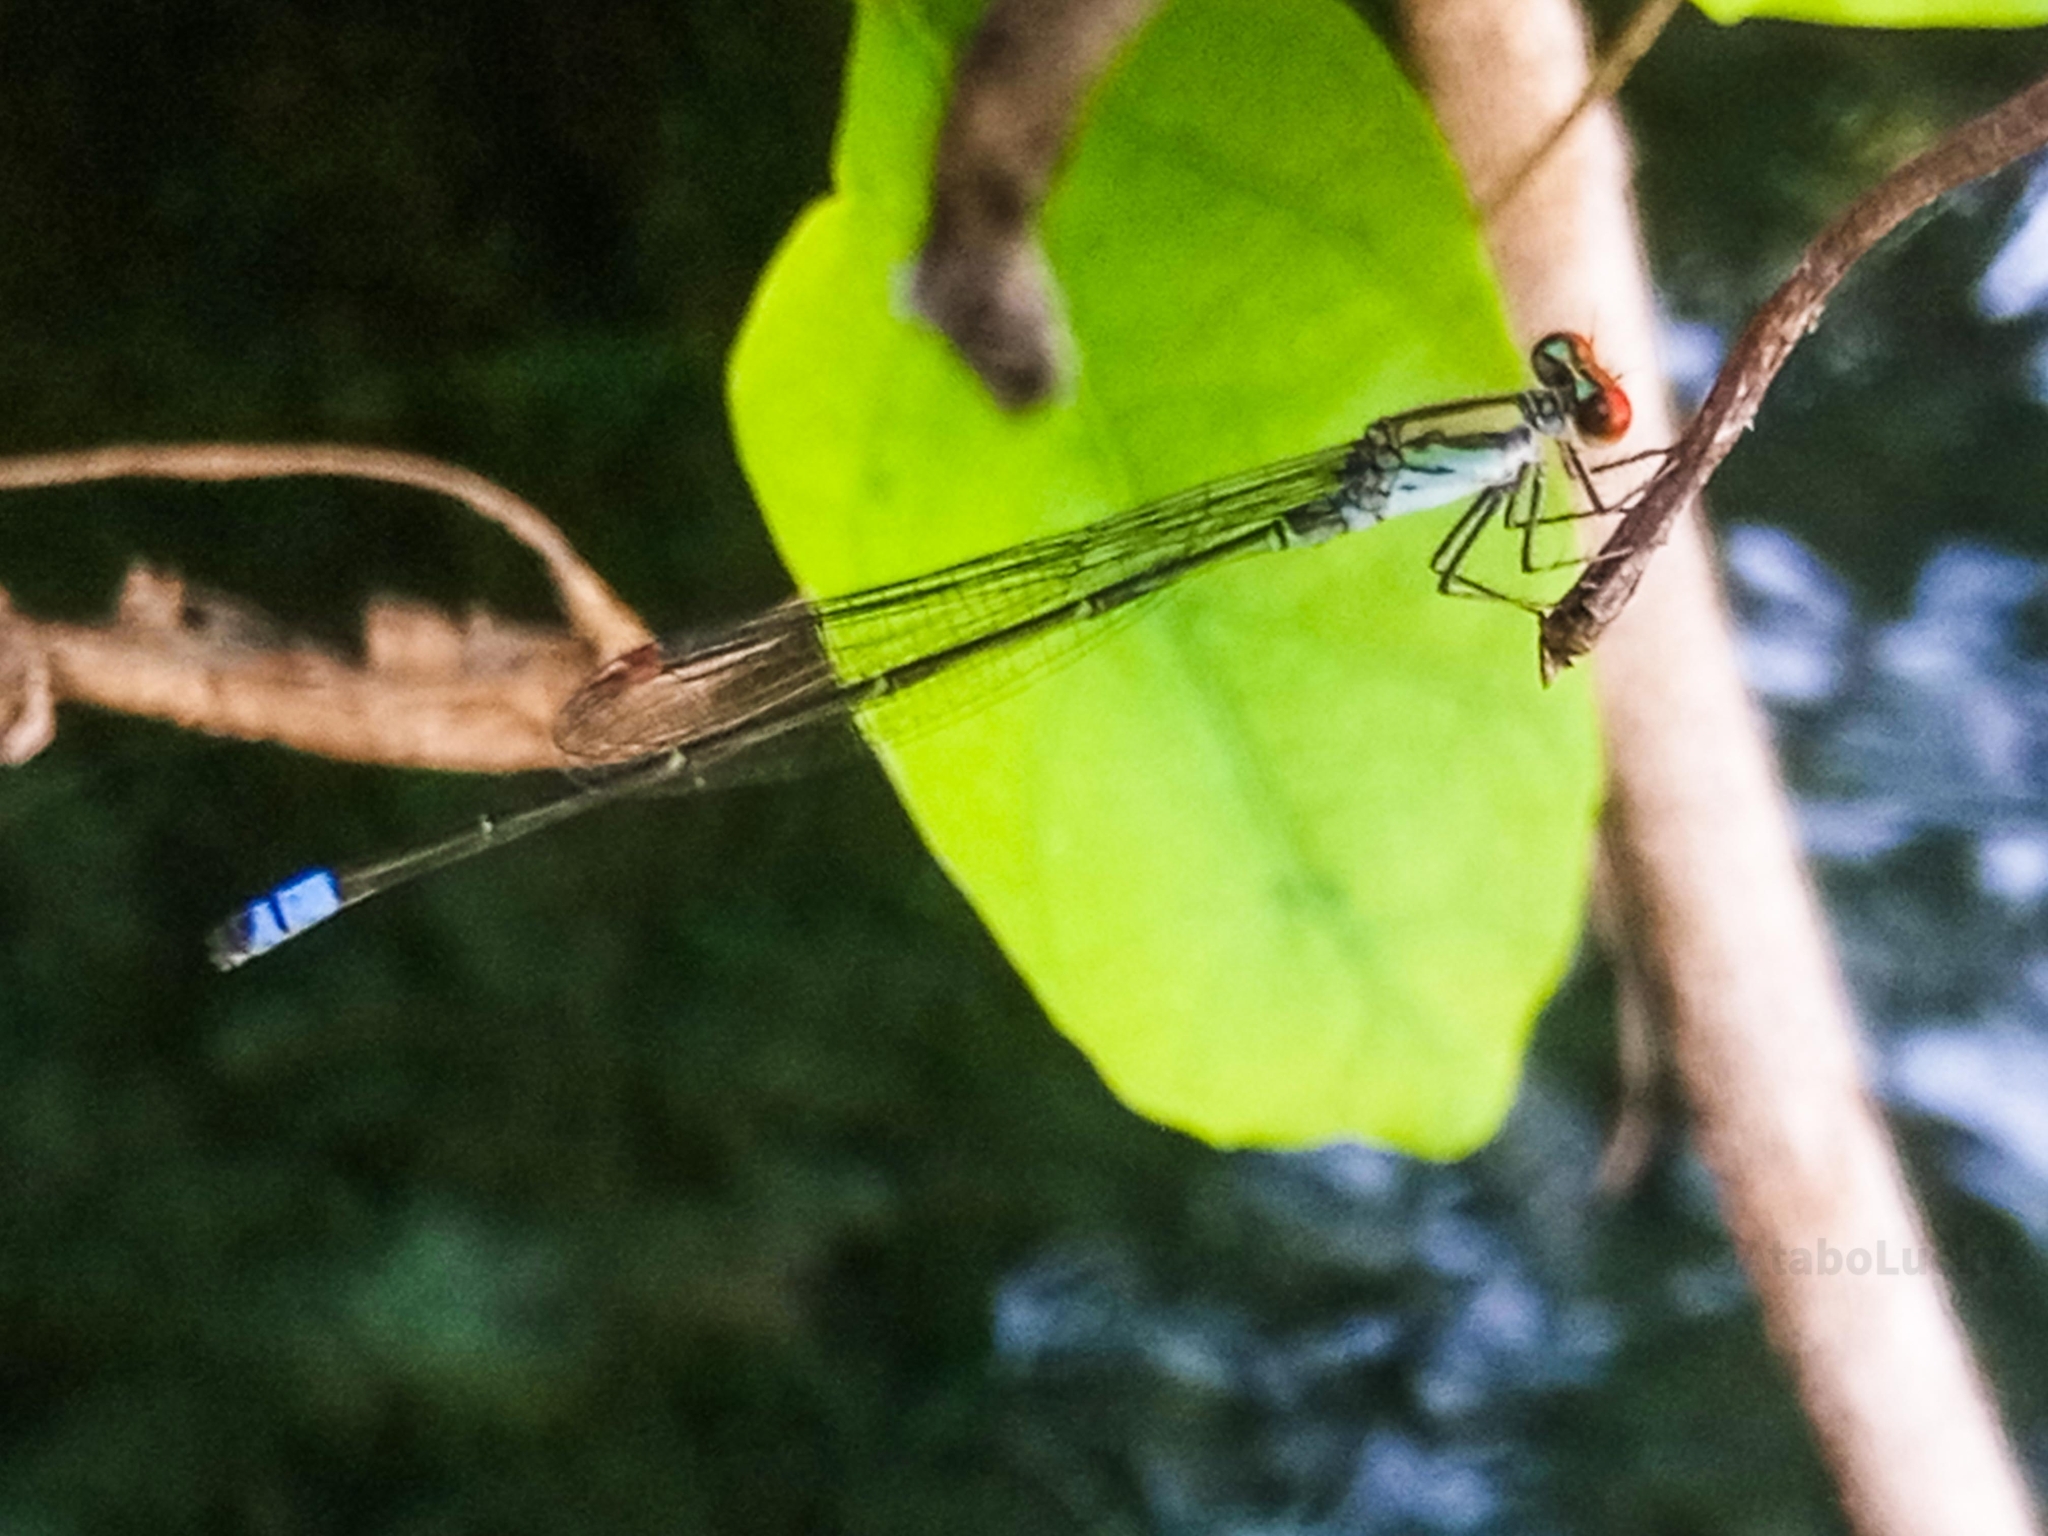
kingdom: Animalia
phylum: Arthropoda
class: Insecta
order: Odonata
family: Coenagrionidae
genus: Pseudagrion
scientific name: Pseudagrion sjoestedti
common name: Variable sprite
